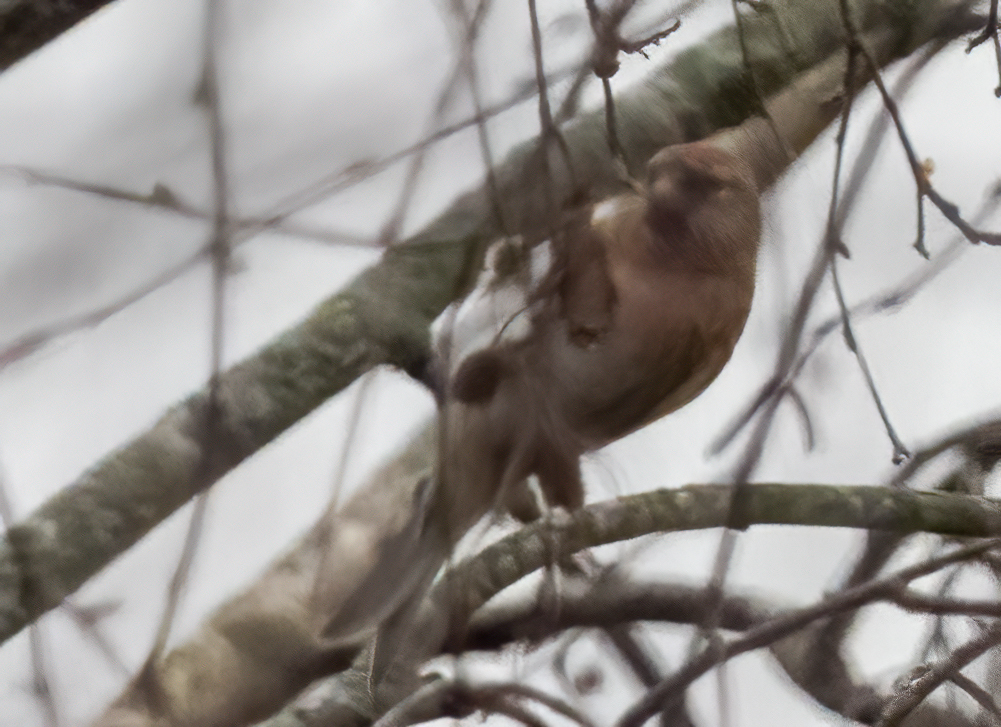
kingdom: Animalia
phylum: Chordata
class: Aves
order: Passeriformes
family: Fringillidae
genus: Acanthis
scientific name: Acanthis flammea
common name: Common redpoll
